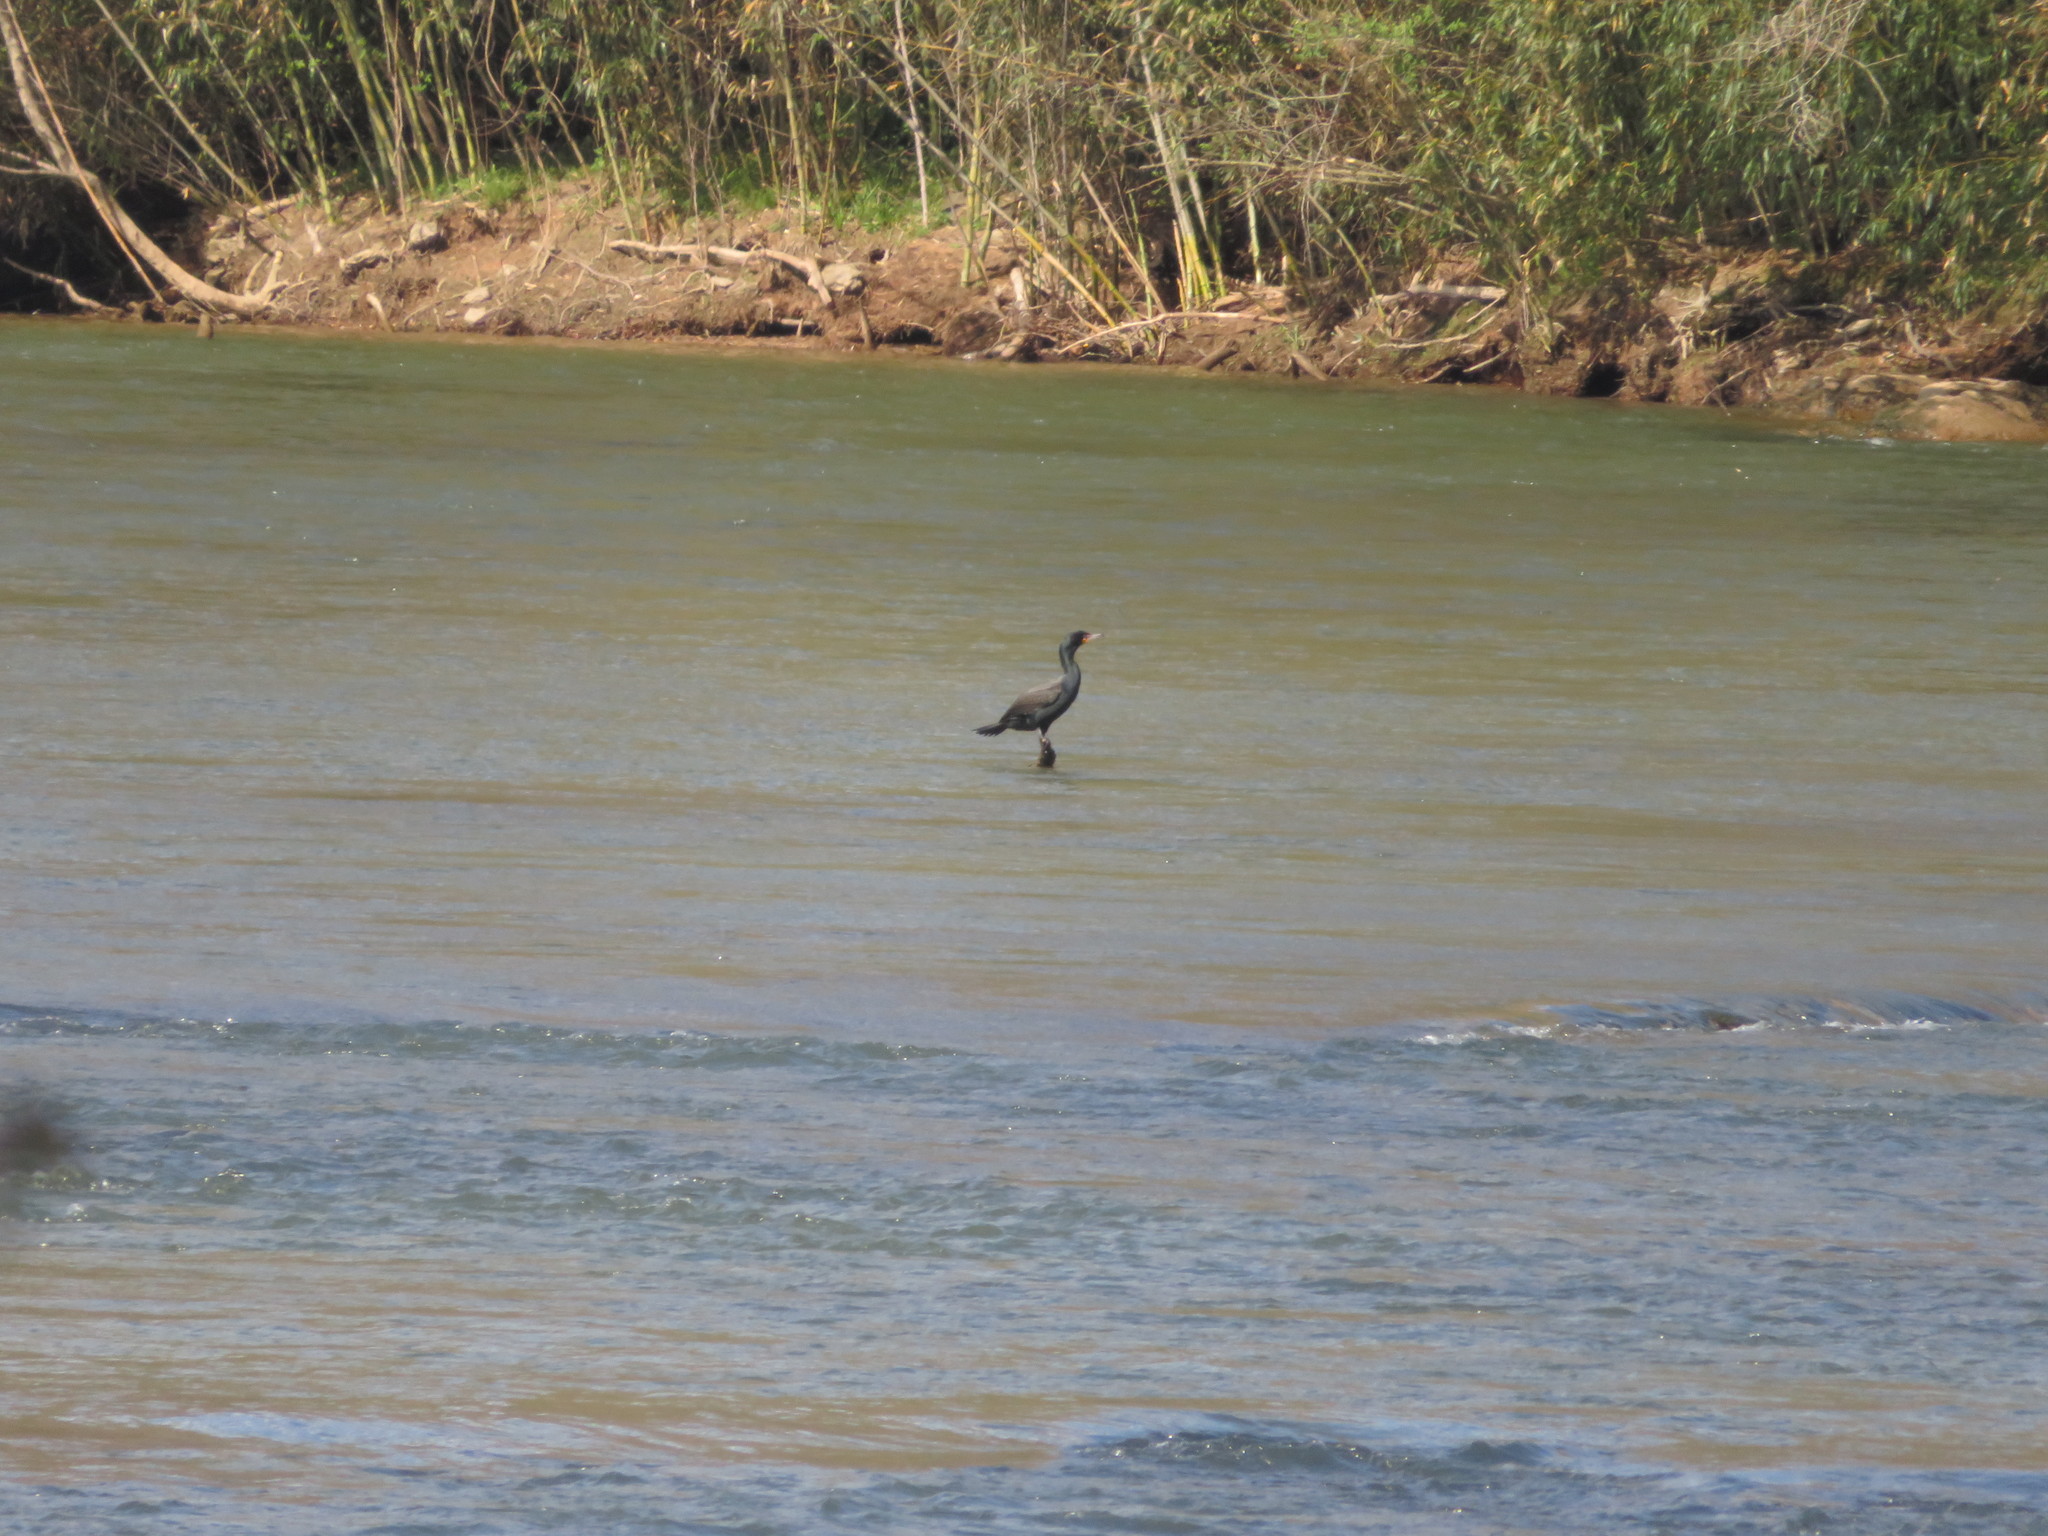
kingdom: Animalia
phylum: Chordata
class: Aves
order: Suliformes
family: Phalacrocoracidae
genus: Phalacrocorax
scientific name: Phalacrocorax auritus
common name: Double-crested cormorant
